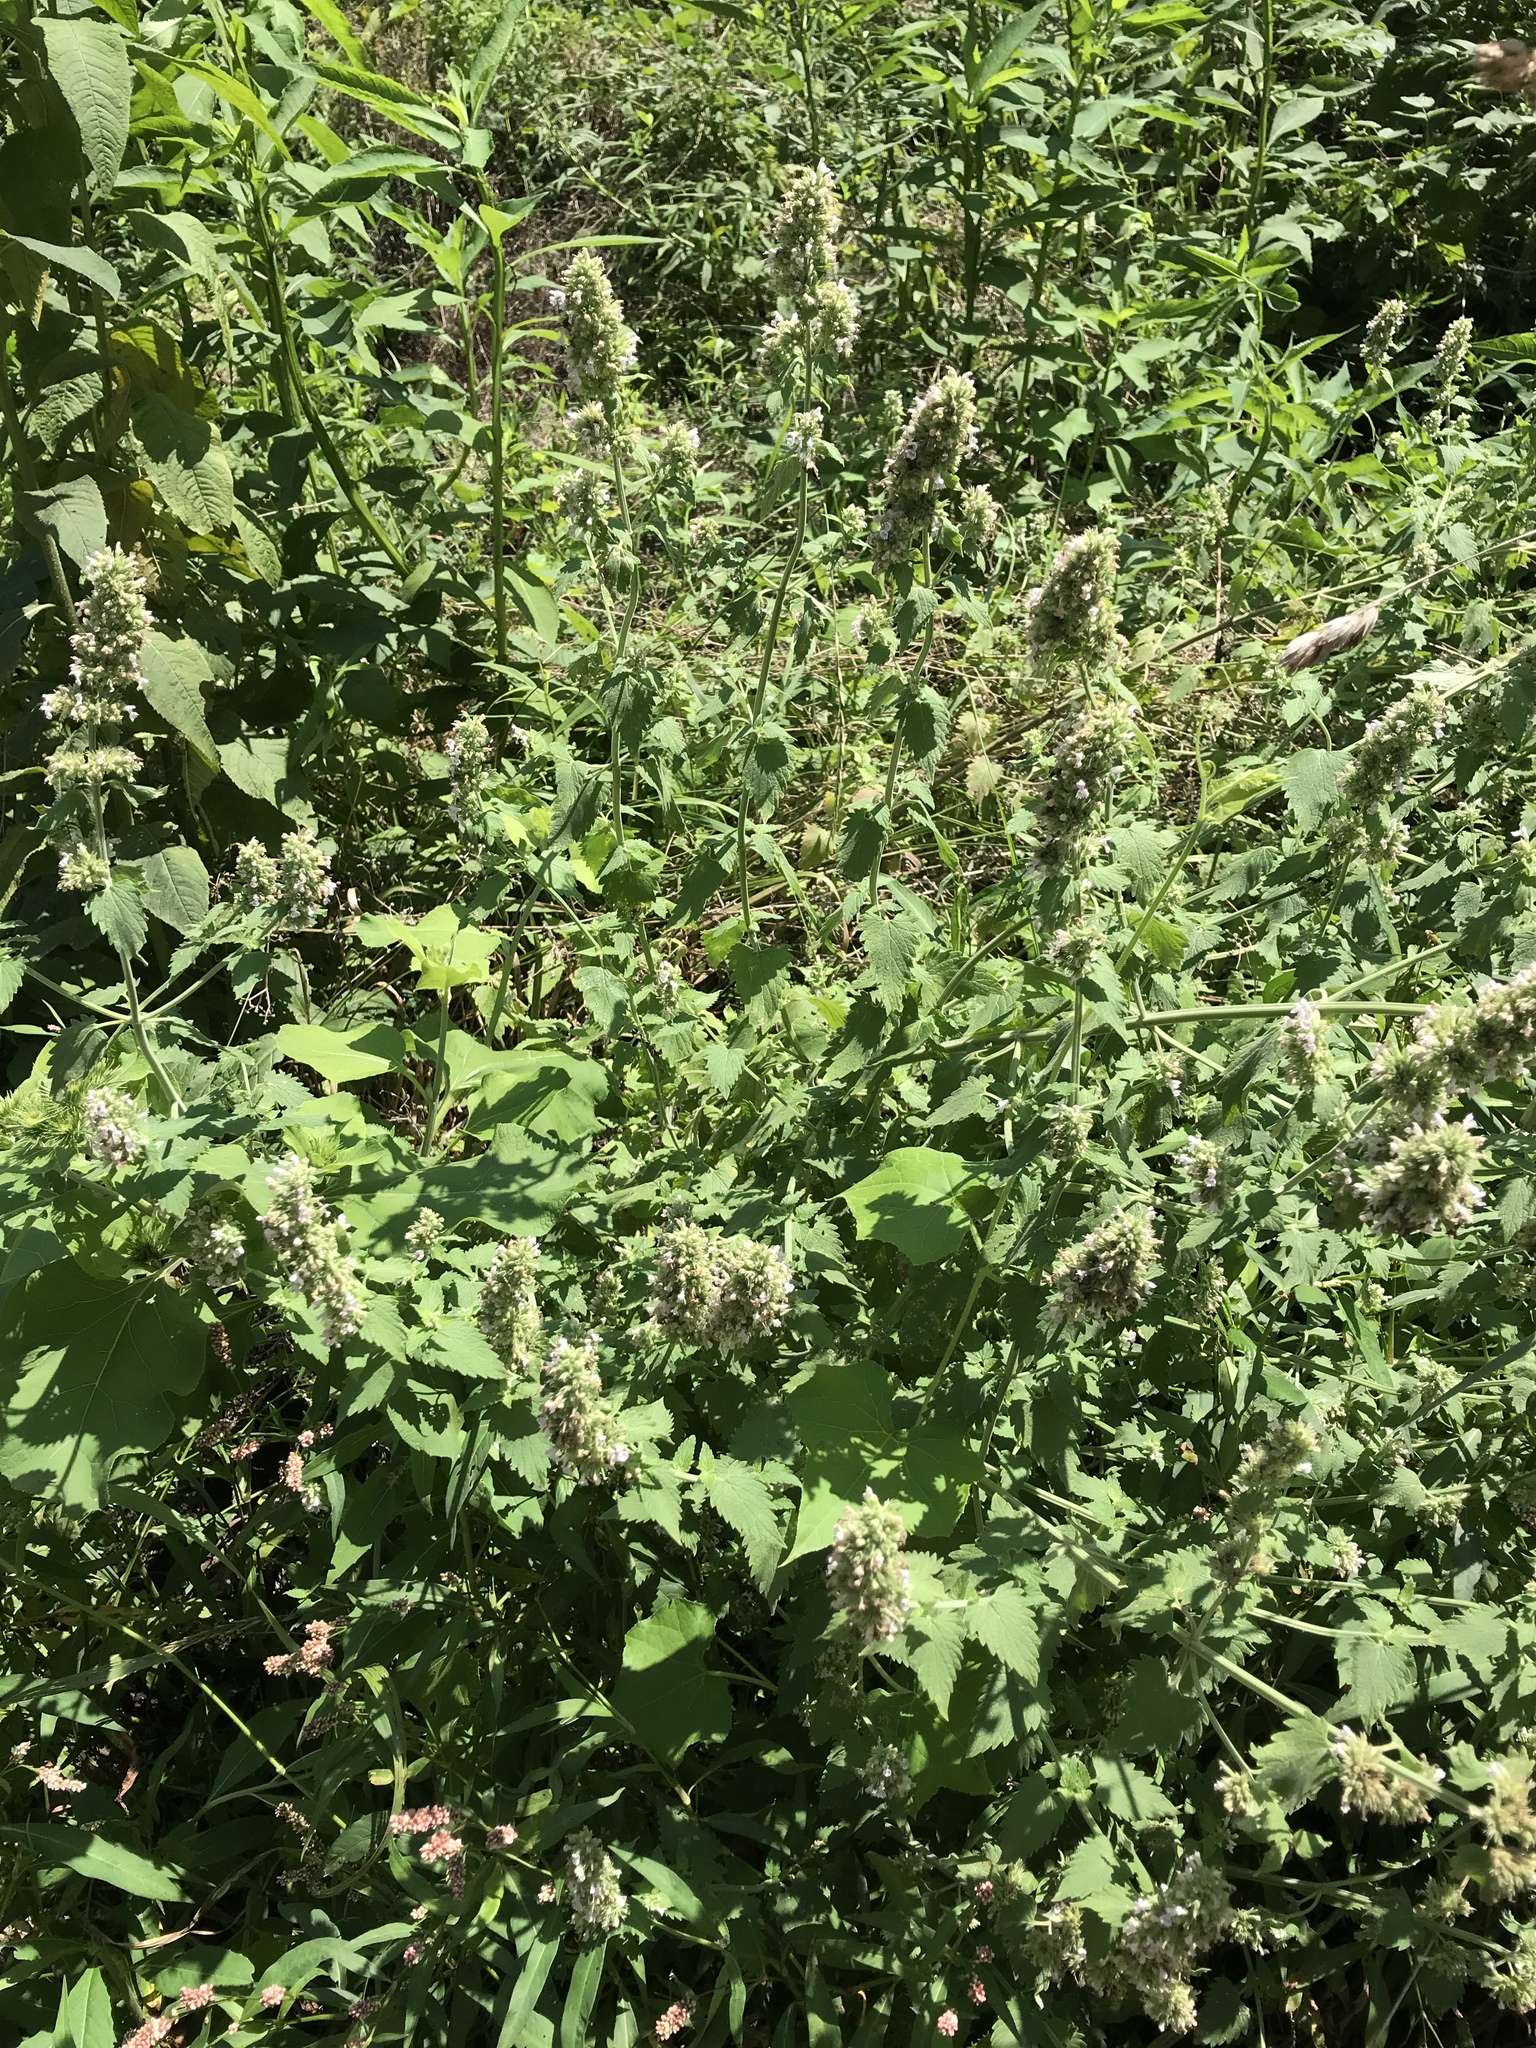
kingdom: Plantae
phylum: Tracheophyta
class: Magnoliopsida
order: Lamiales
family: Lamiaceae
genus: Nepeta
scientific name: Nepeta cataria
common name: Catnip
